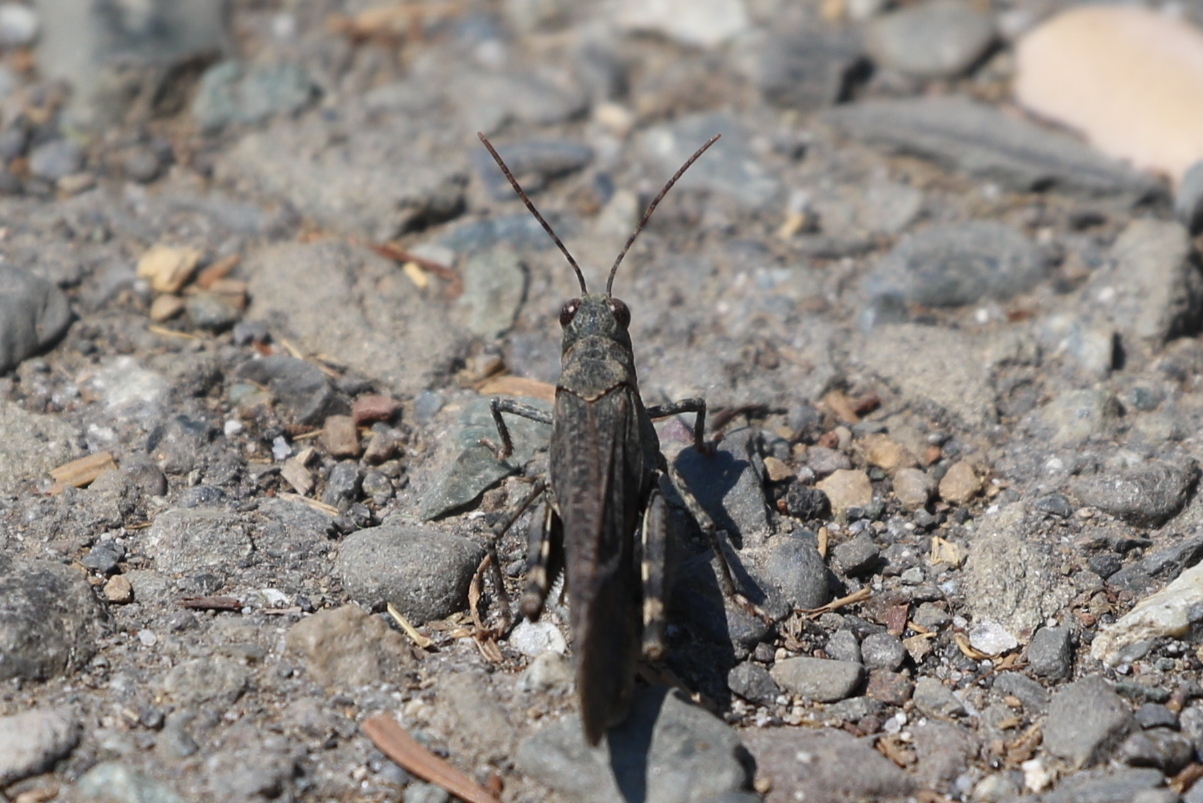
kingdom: Animalia
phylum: Arthropoda
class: Insecta
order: Orthoptera
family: Acrididae
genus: Trimerotropis
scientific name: Trimerotropis verruculata
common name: Crackling forest grasshopper
